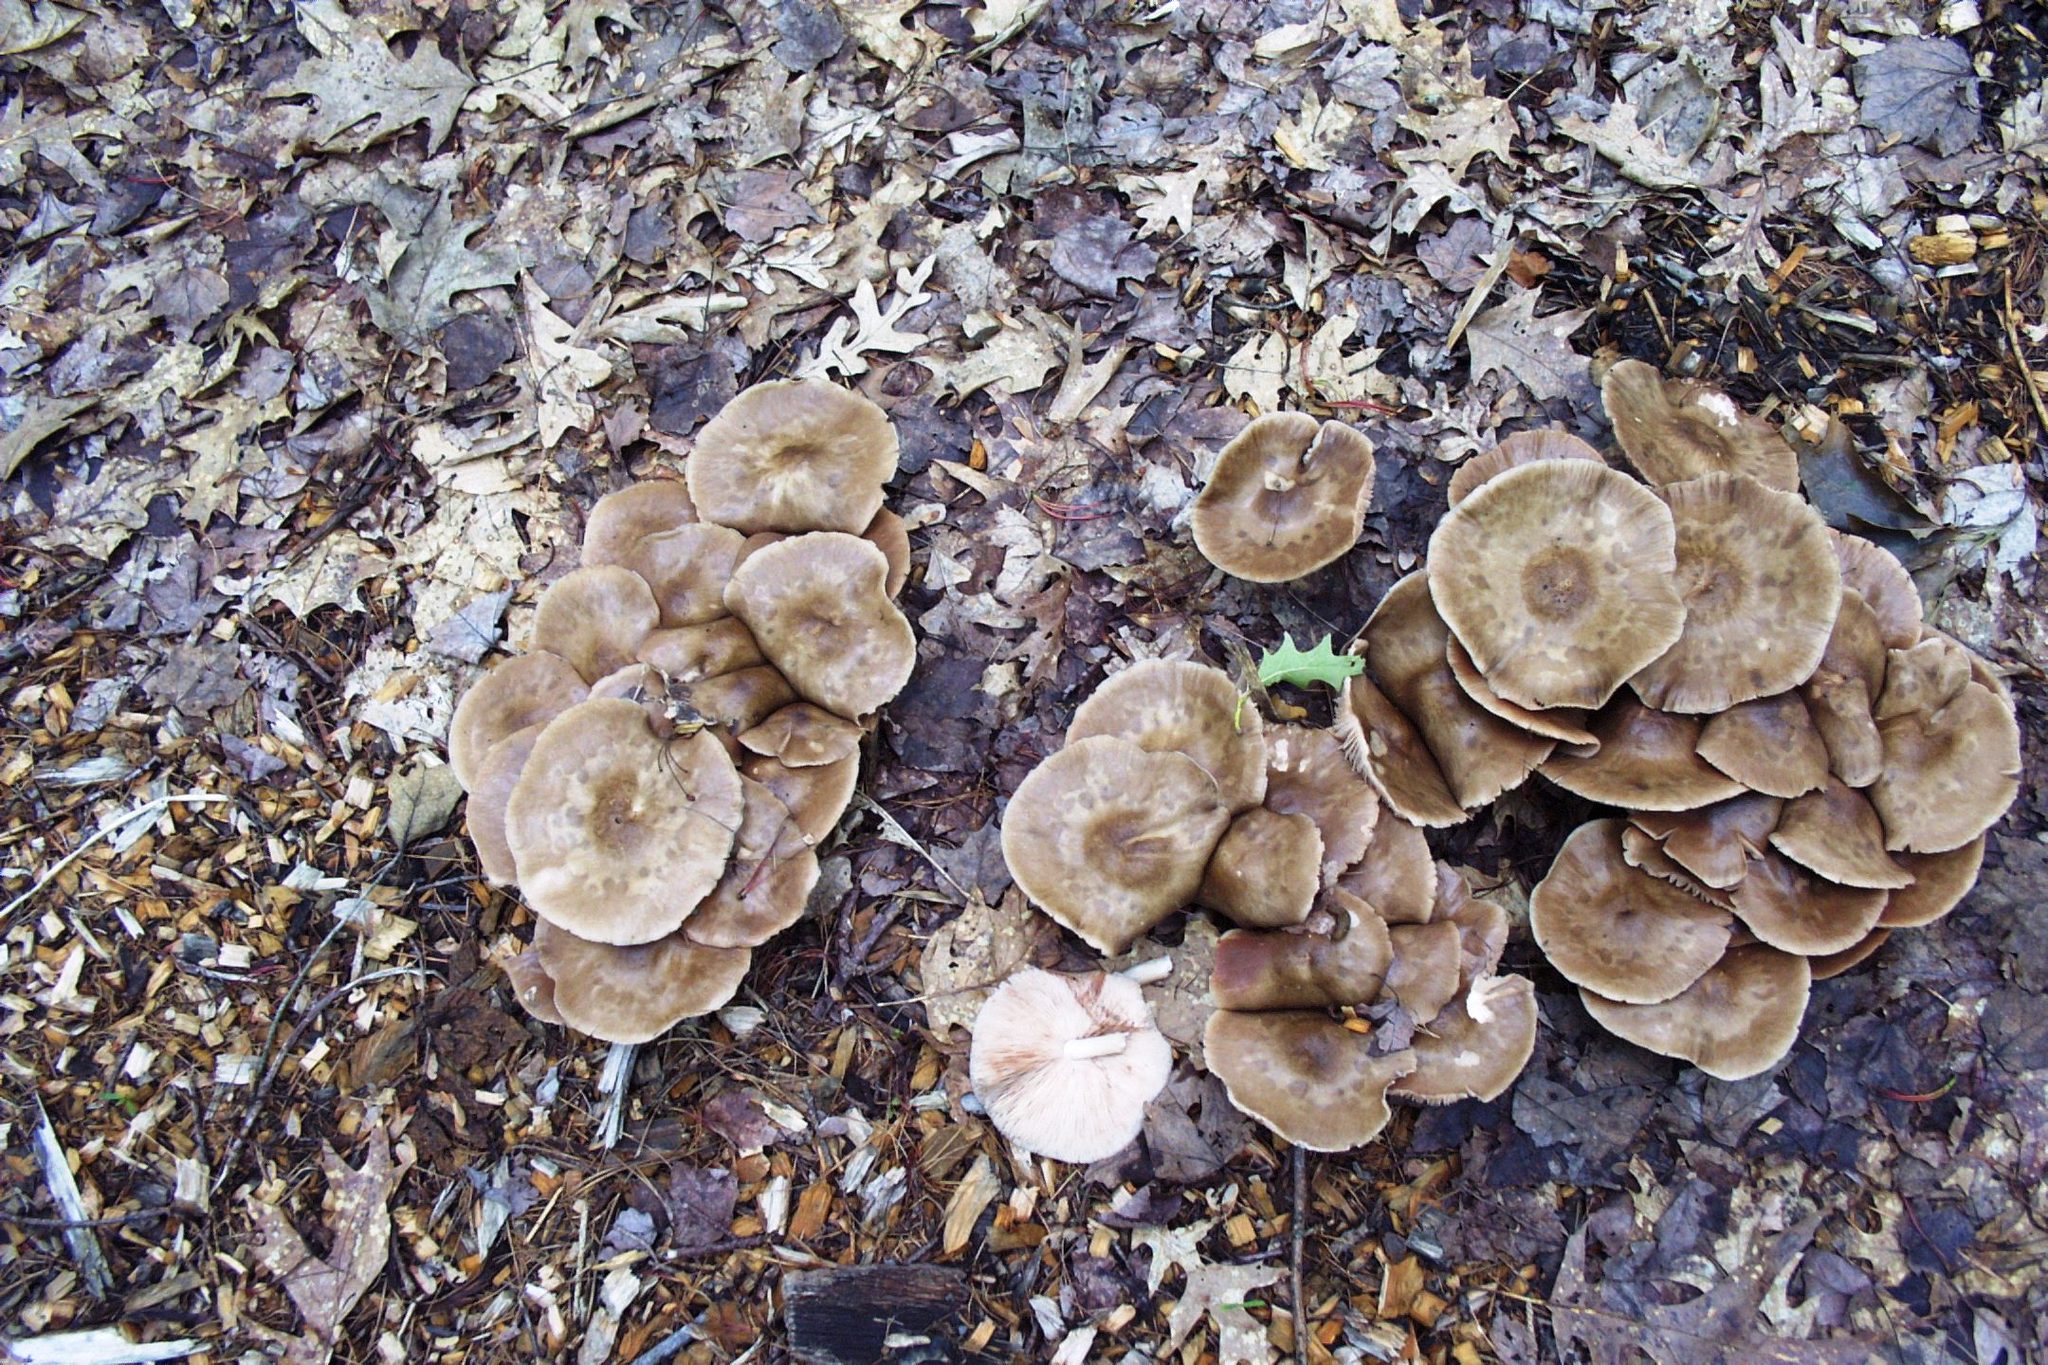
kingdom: Fungi
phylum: Basidiomycota
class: Agaricomycetes
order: Agaricales
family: Pluteaceae
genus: Pluteus
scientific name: Pluteus cervinus
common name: Deer shield
